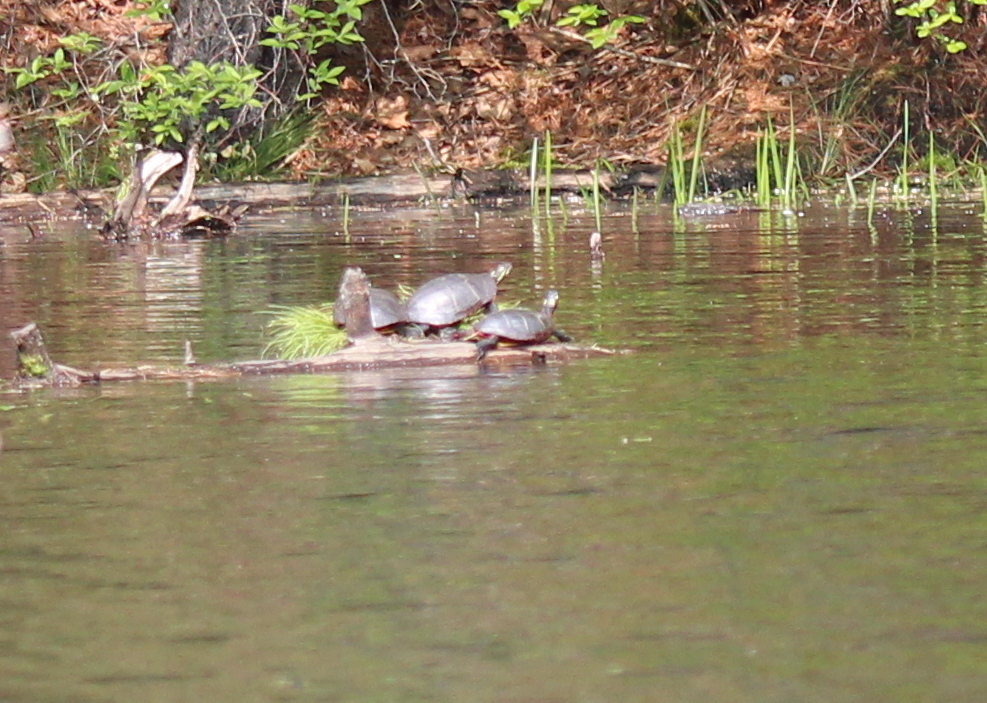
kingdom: Animalia
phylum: Chordata
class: Testudines
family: Emydidae
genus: Chrysemys
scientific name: Chrysemys picta
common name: Painted turtle
